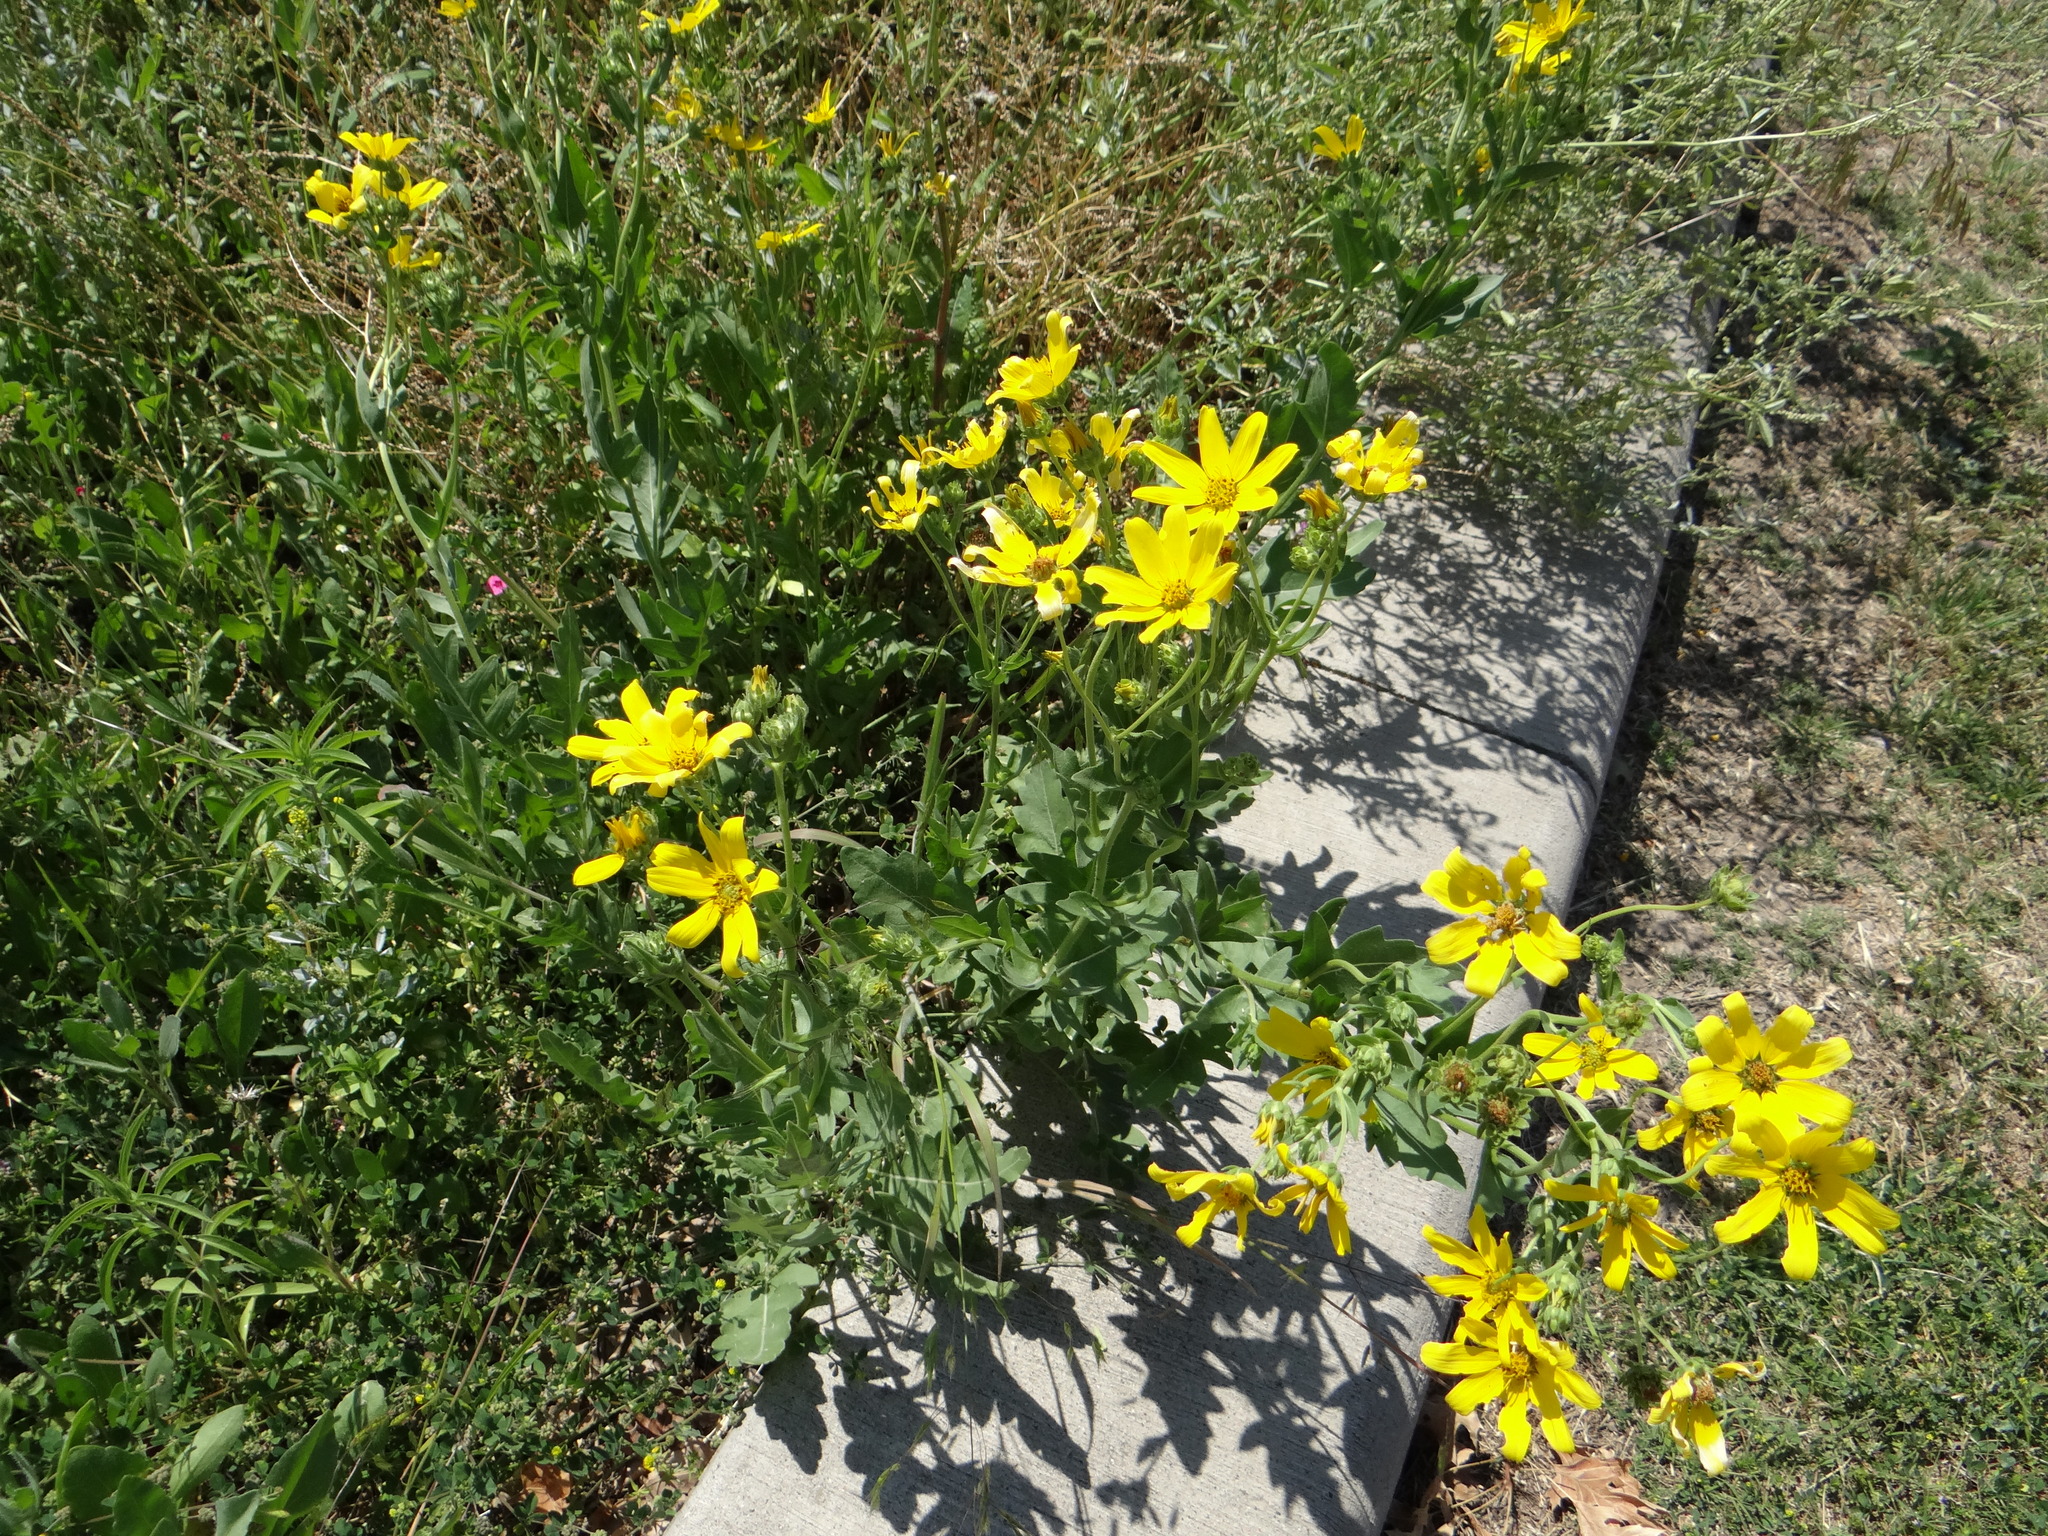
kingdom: Plantae
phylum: Tracheophyta
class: Magnoliopsida
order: Asterales
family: Asteraceae
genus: Engelmannia
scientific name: Engelmannia peristenia
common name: Engelmann's daisy
